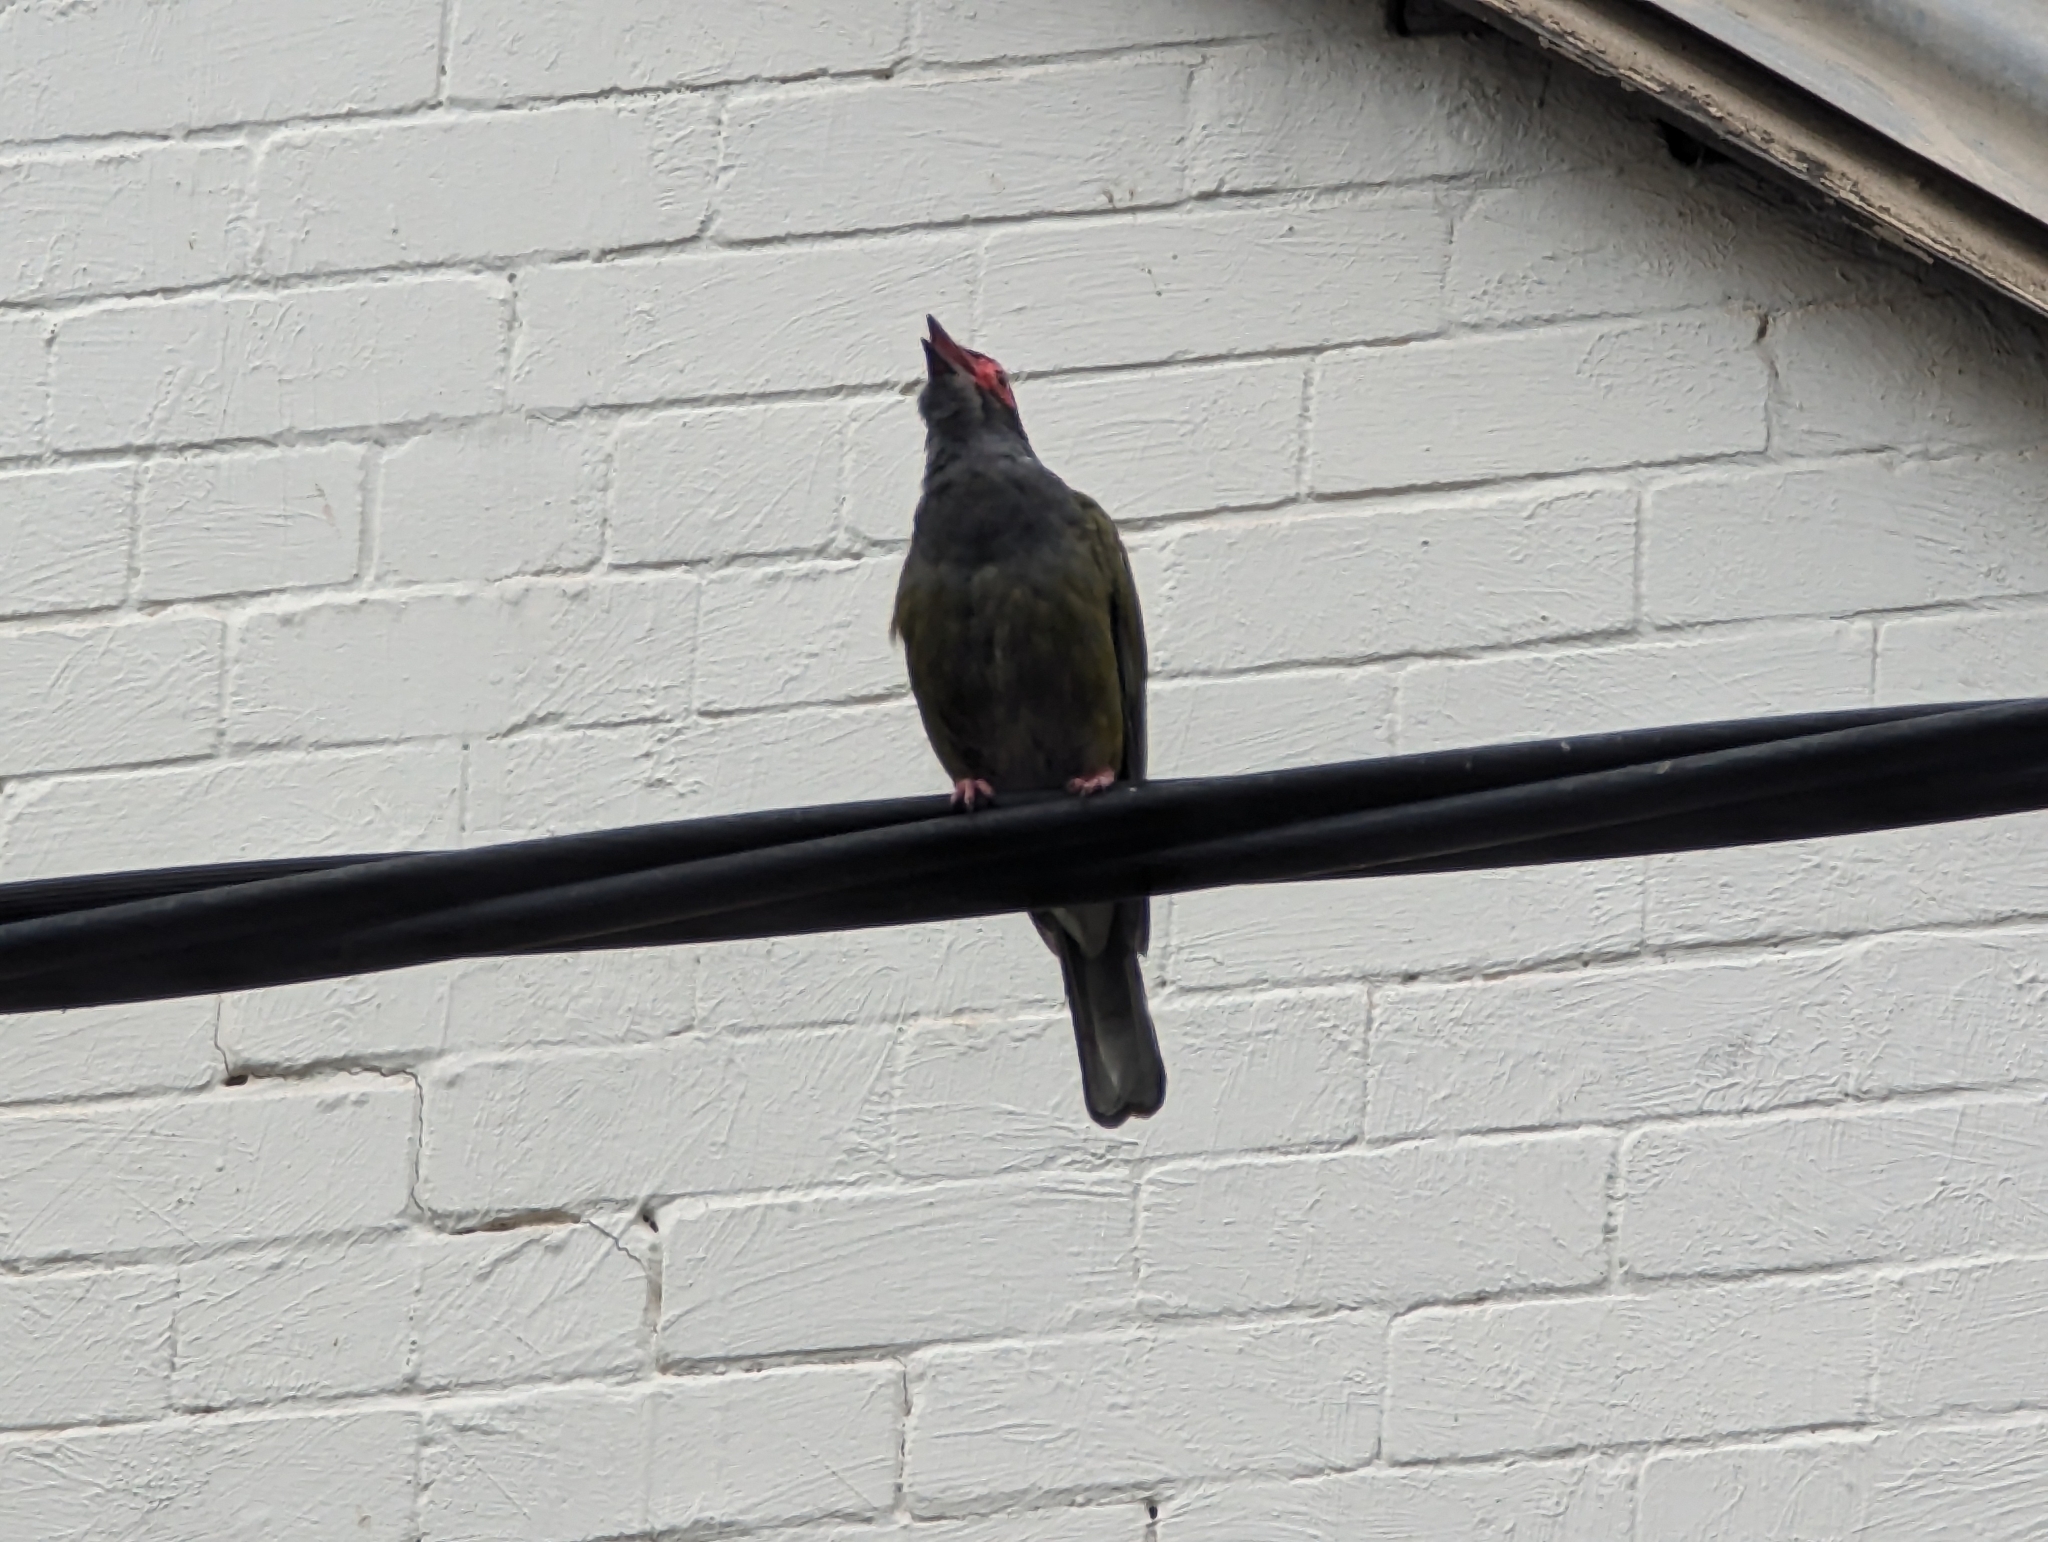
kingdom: Animalia
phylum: Chordata
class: Aves
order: Passeriformes
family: Oriolidae
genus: Sphecotheres
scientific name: Sphecotheres vieilloti
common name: Australasian figbird
